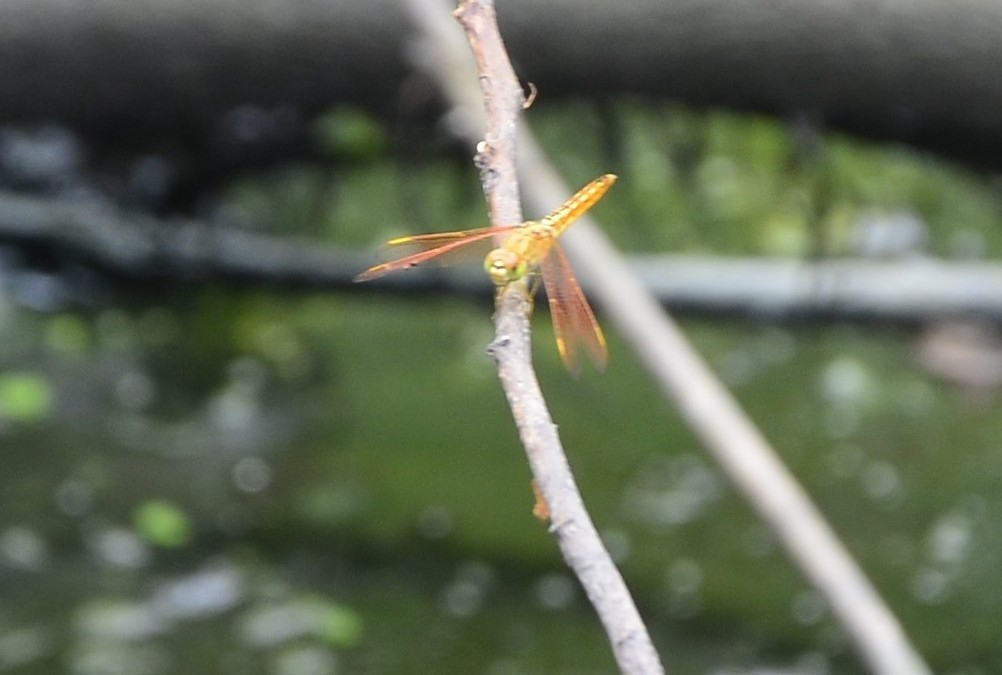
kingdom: Animalia
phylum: Arthropoda
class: Insecta
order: Odonata
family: Libellulidae
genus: Brachythemis
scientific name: Brachythemis contaminata
